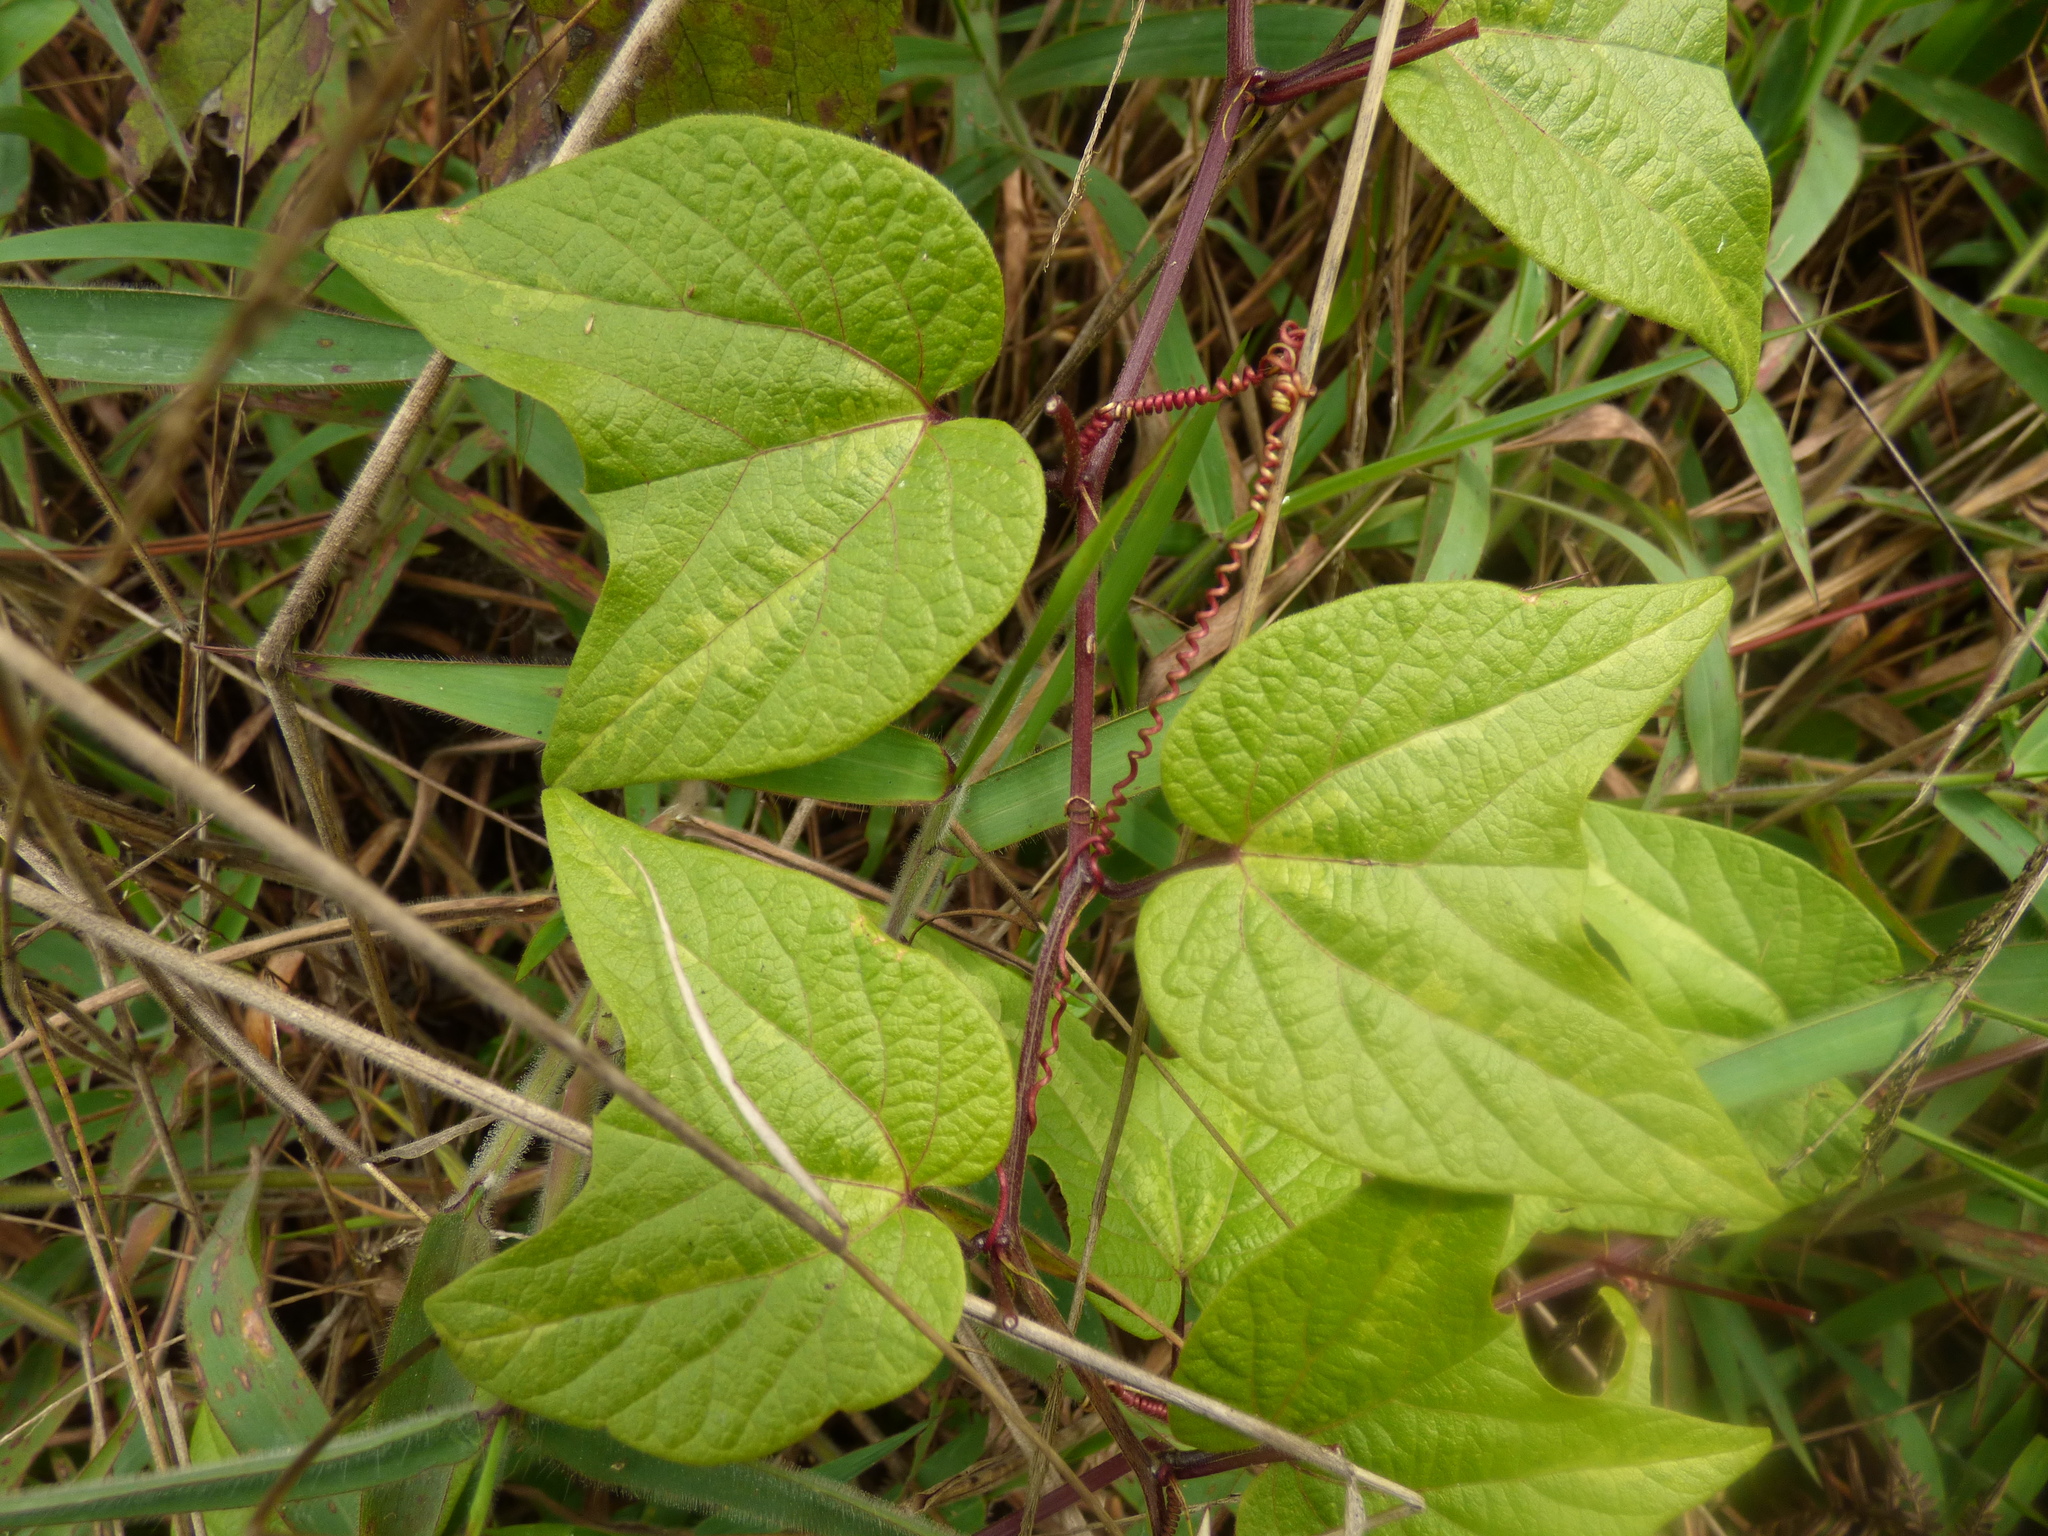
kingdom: Plantae
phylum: Tracheophyta
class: Magnoliopsida
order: Malpighiales
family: Passifloraceae
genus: Passiflora
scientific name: Passiflora cisnana
